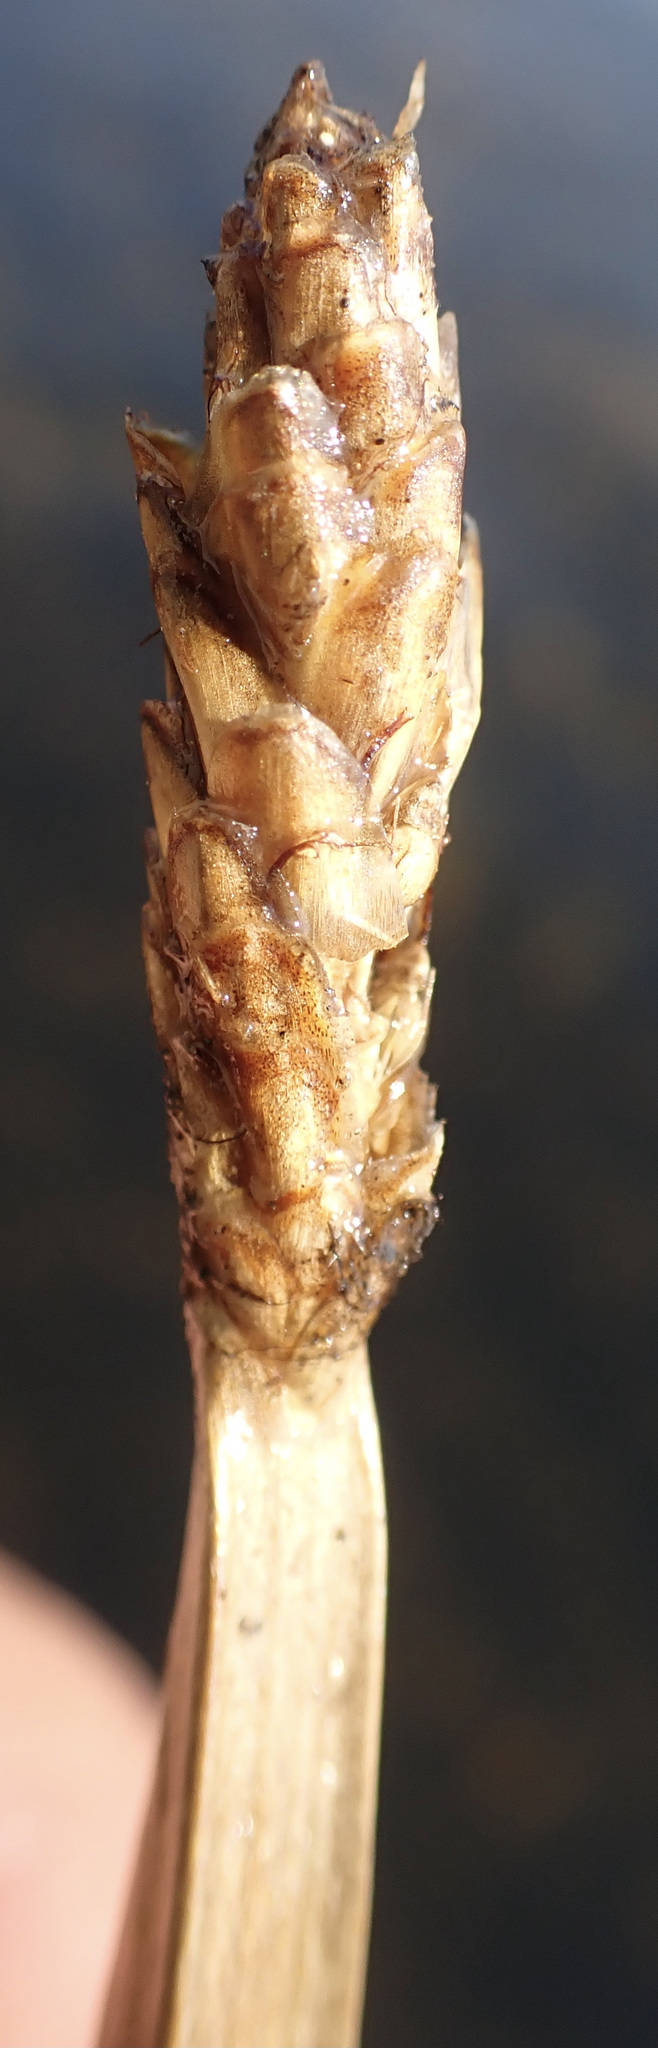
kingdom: Plantae
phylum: Tracheophyta
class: Liliopsida
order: Poales
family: Cyperaceae
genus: Eleocharis
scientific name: Eleocharis acutangula
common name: Acute spikerush
